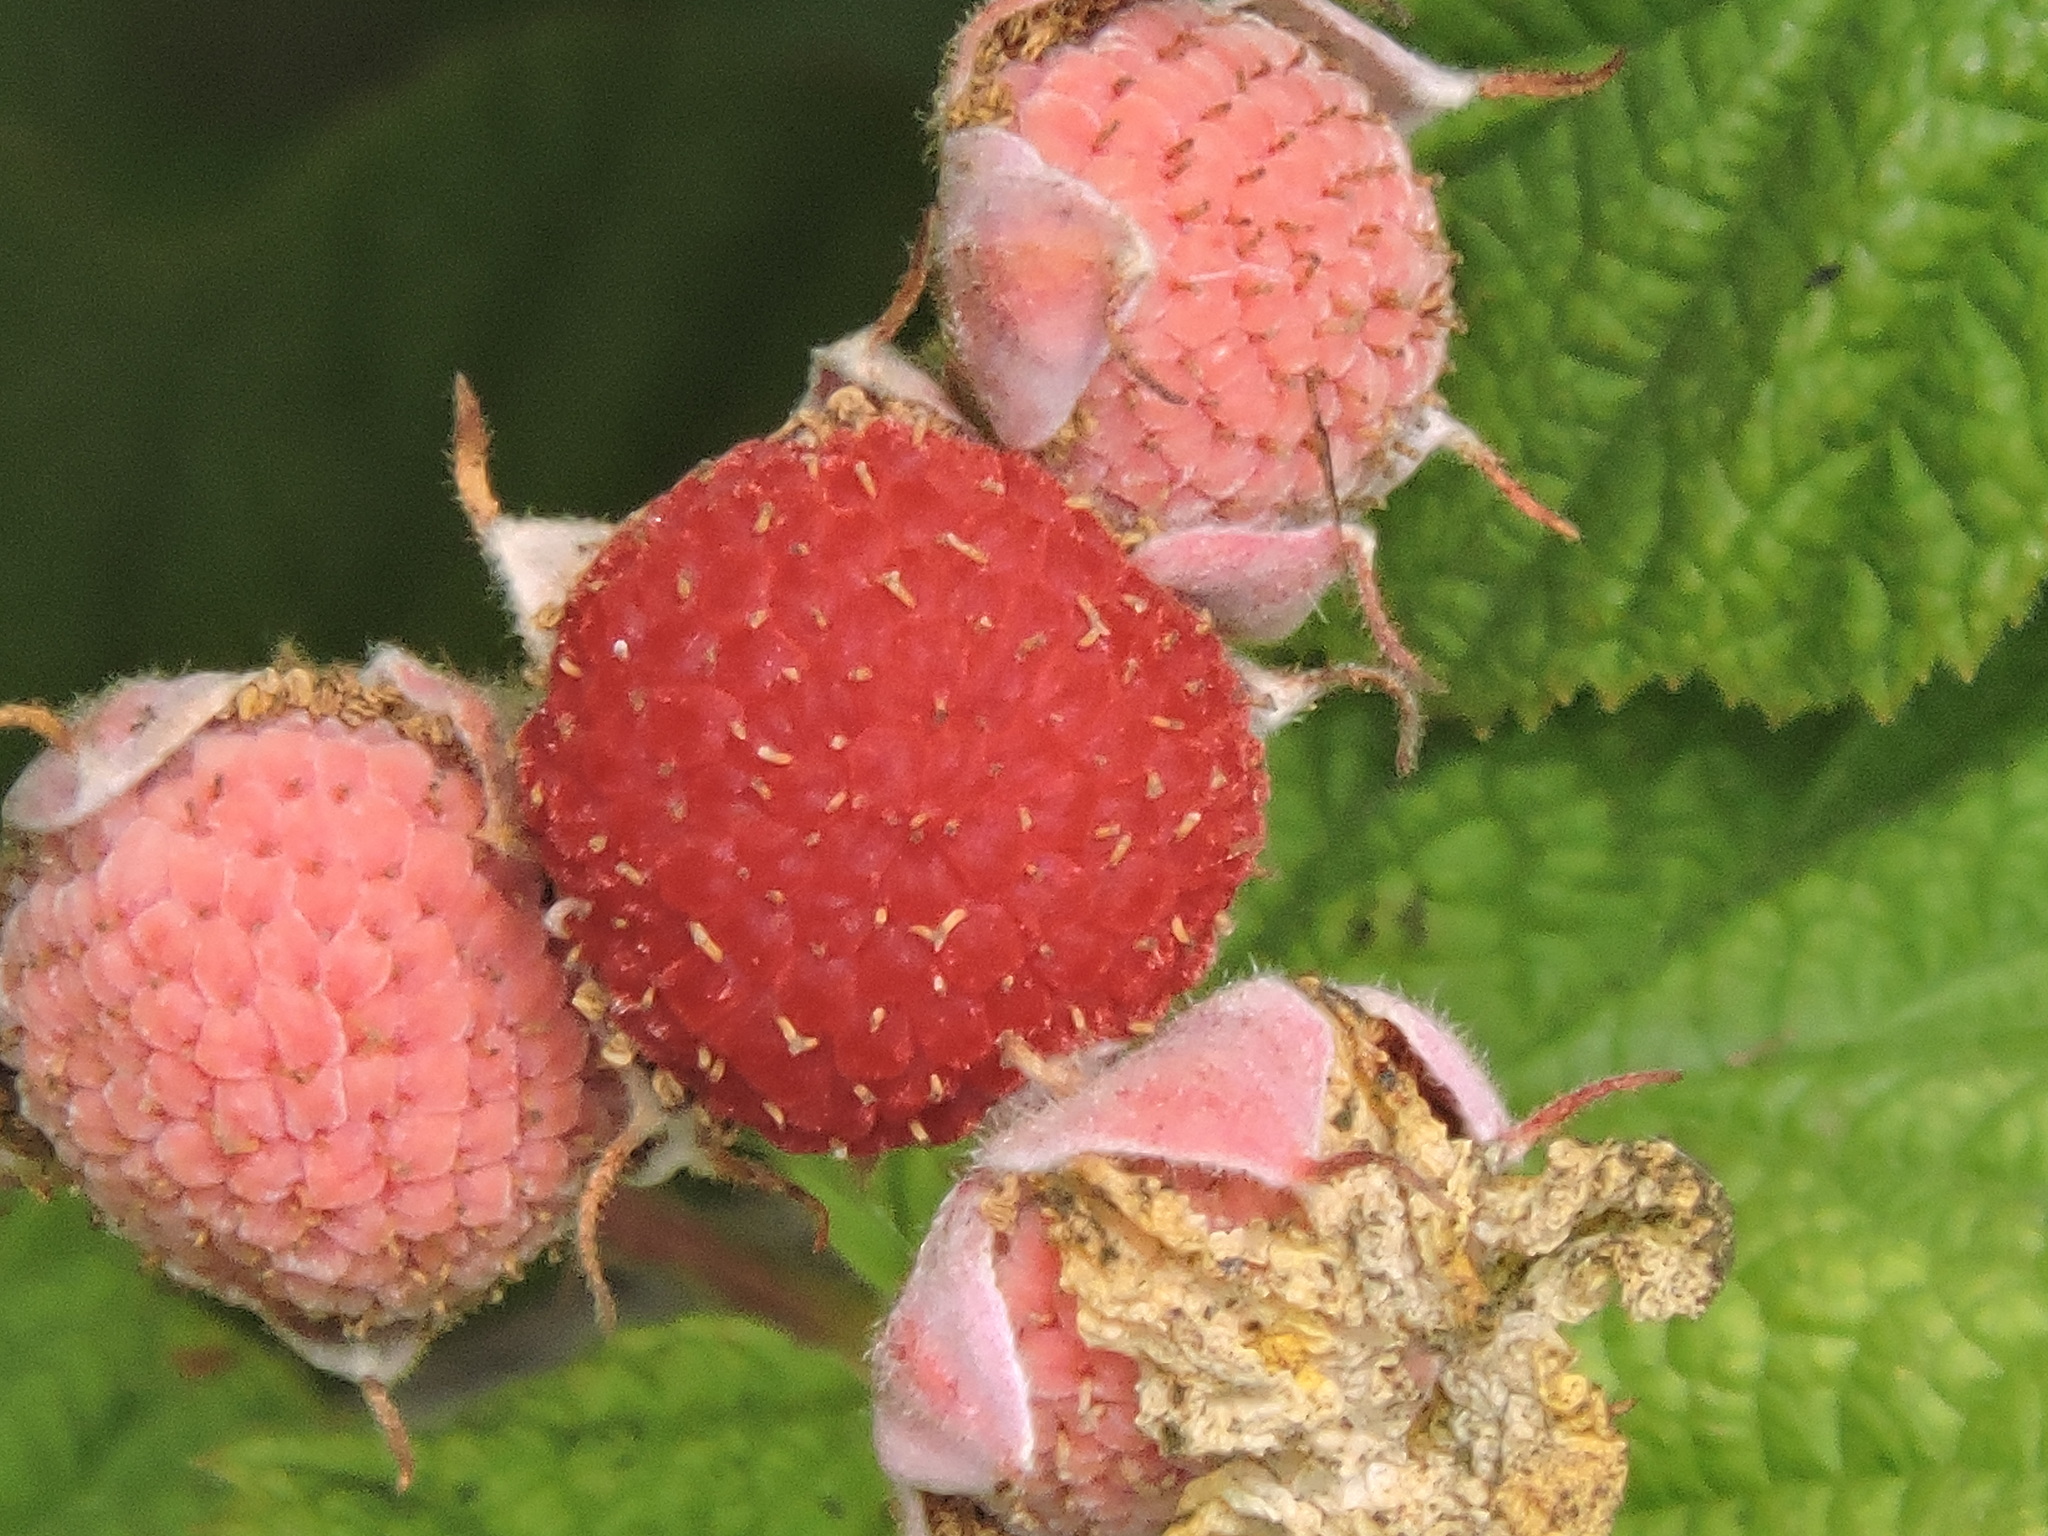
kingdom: Plantae
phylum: Tracheophyta
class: Magnoliopsida
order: Rosales
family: Rosaceae
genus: Rubus
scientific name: Rubus parviflorus
